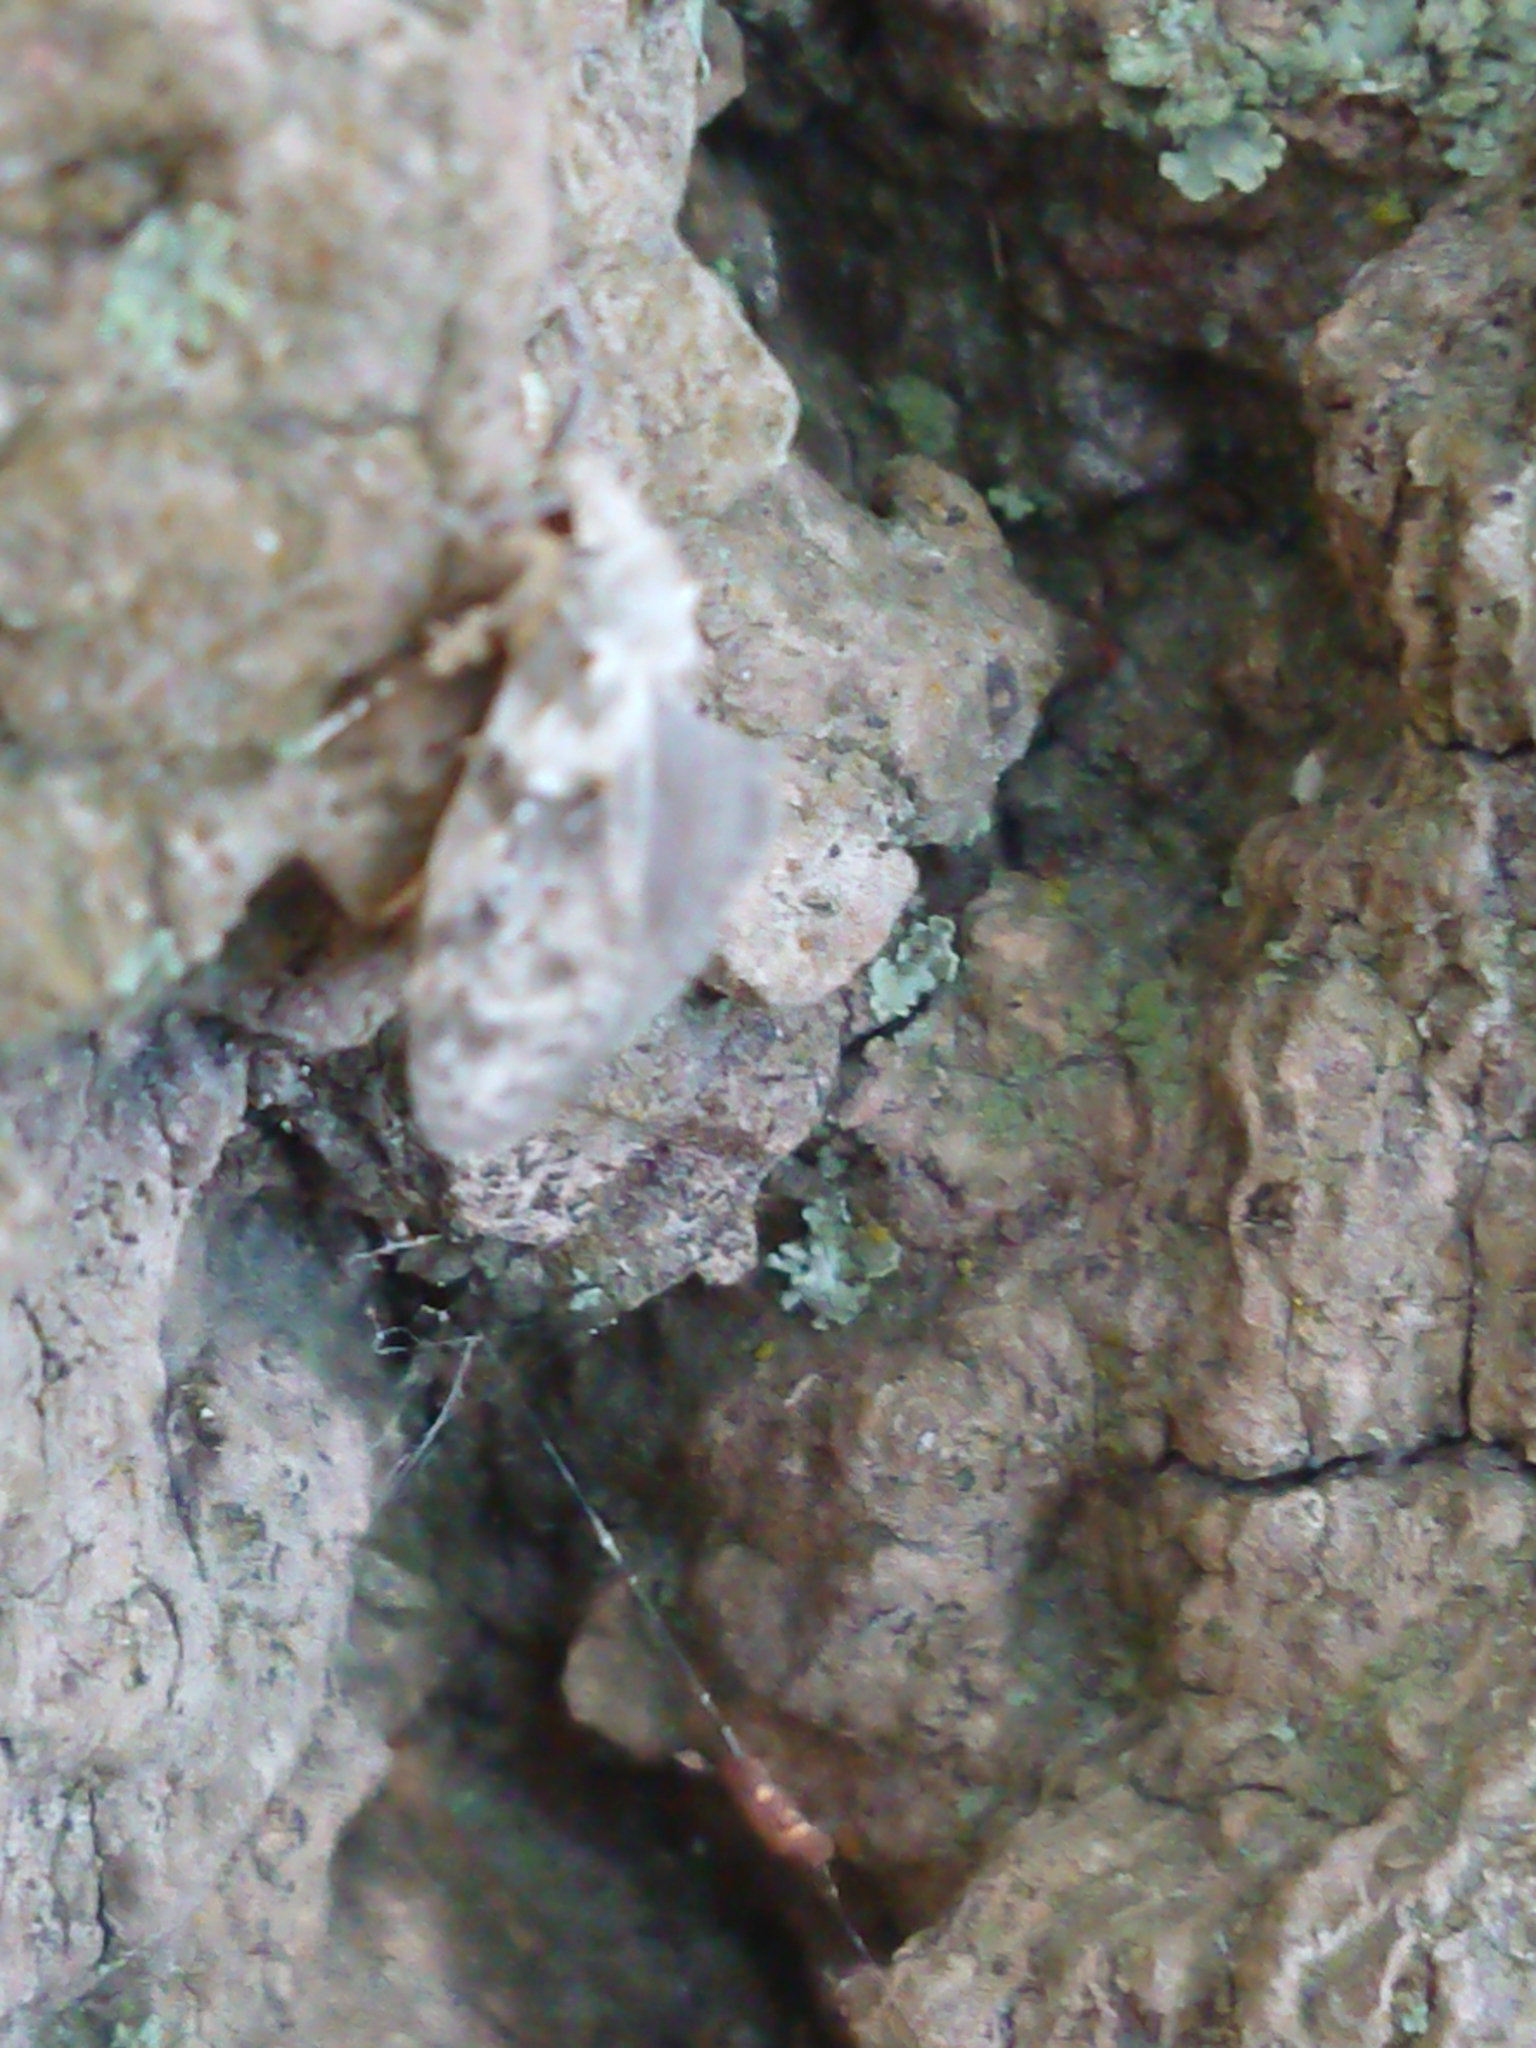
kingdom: Animalia
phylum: Arthropoda
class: Insecta
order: Lepidoptera
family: Oecophoridae
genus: Izatha
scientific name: Izatha convulsella
